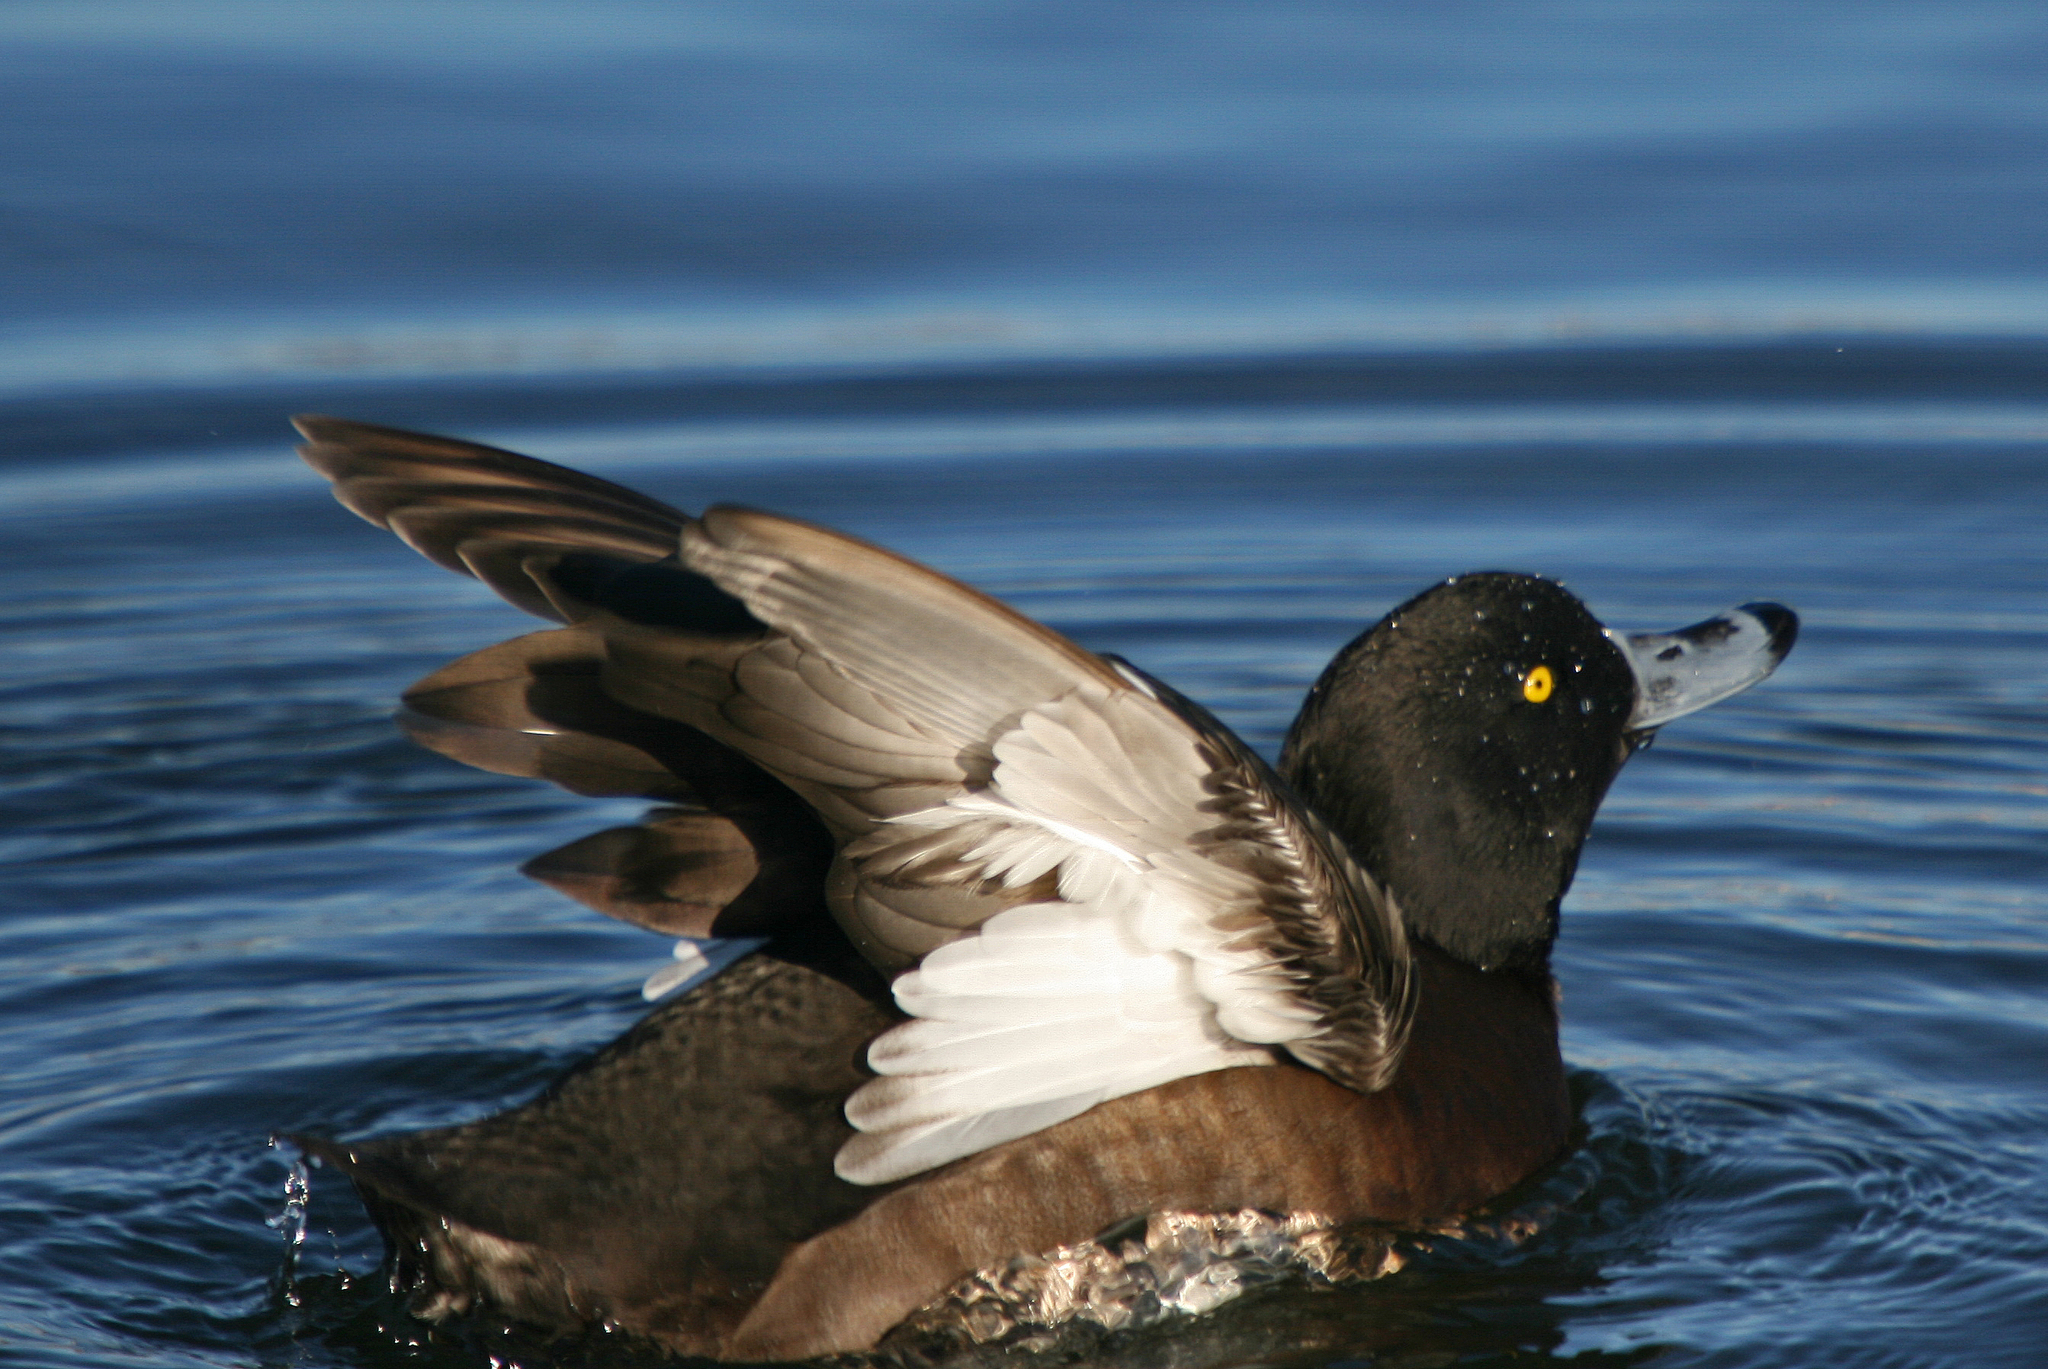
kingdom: Animalia
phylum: Chordata
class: Aves
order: Anseriformes
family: Anatidae
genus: Aythya
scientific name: Aythya fuligula
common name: Tufted duck
